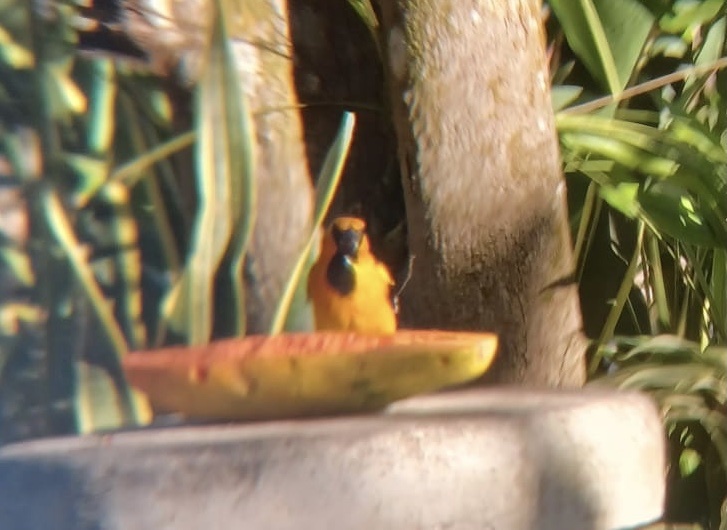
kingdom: Animalia
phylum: Chordata
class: Aves
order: Passeriformes
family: Icteridae
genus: Icterus
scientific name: Icterus gularis
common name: Altamira oriole
